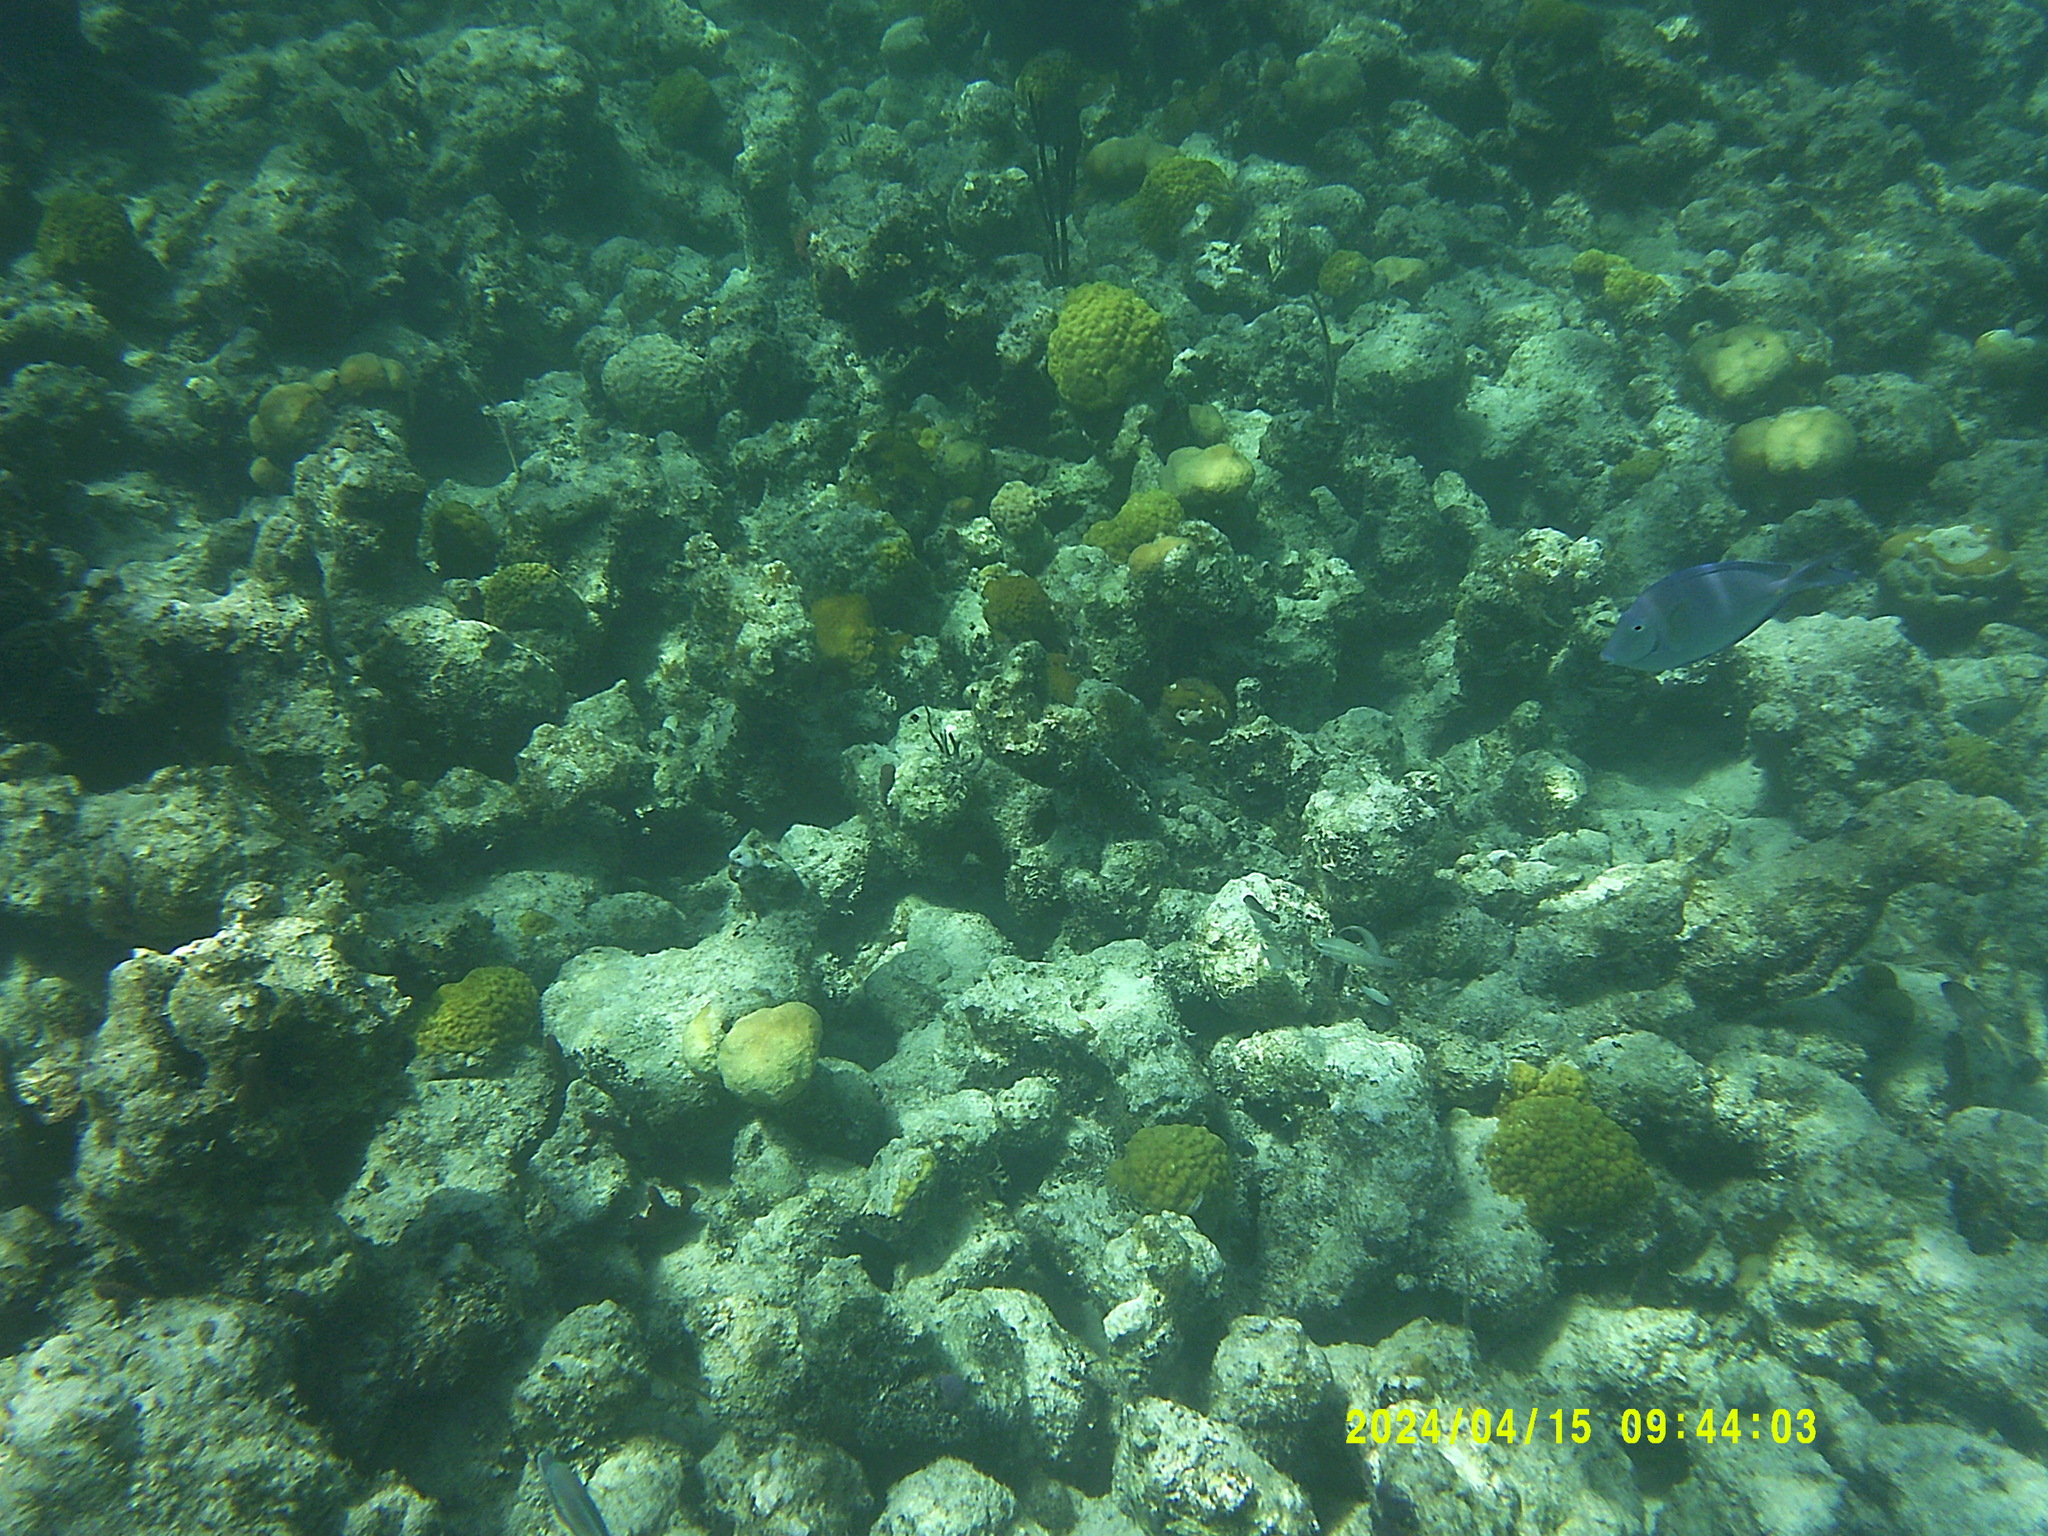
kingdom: Animalia
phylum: Chordata
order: Perciformes
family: Acanthuridae
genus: Acanthurus
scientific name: Acanthurus coeruleus
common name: Blue tang
